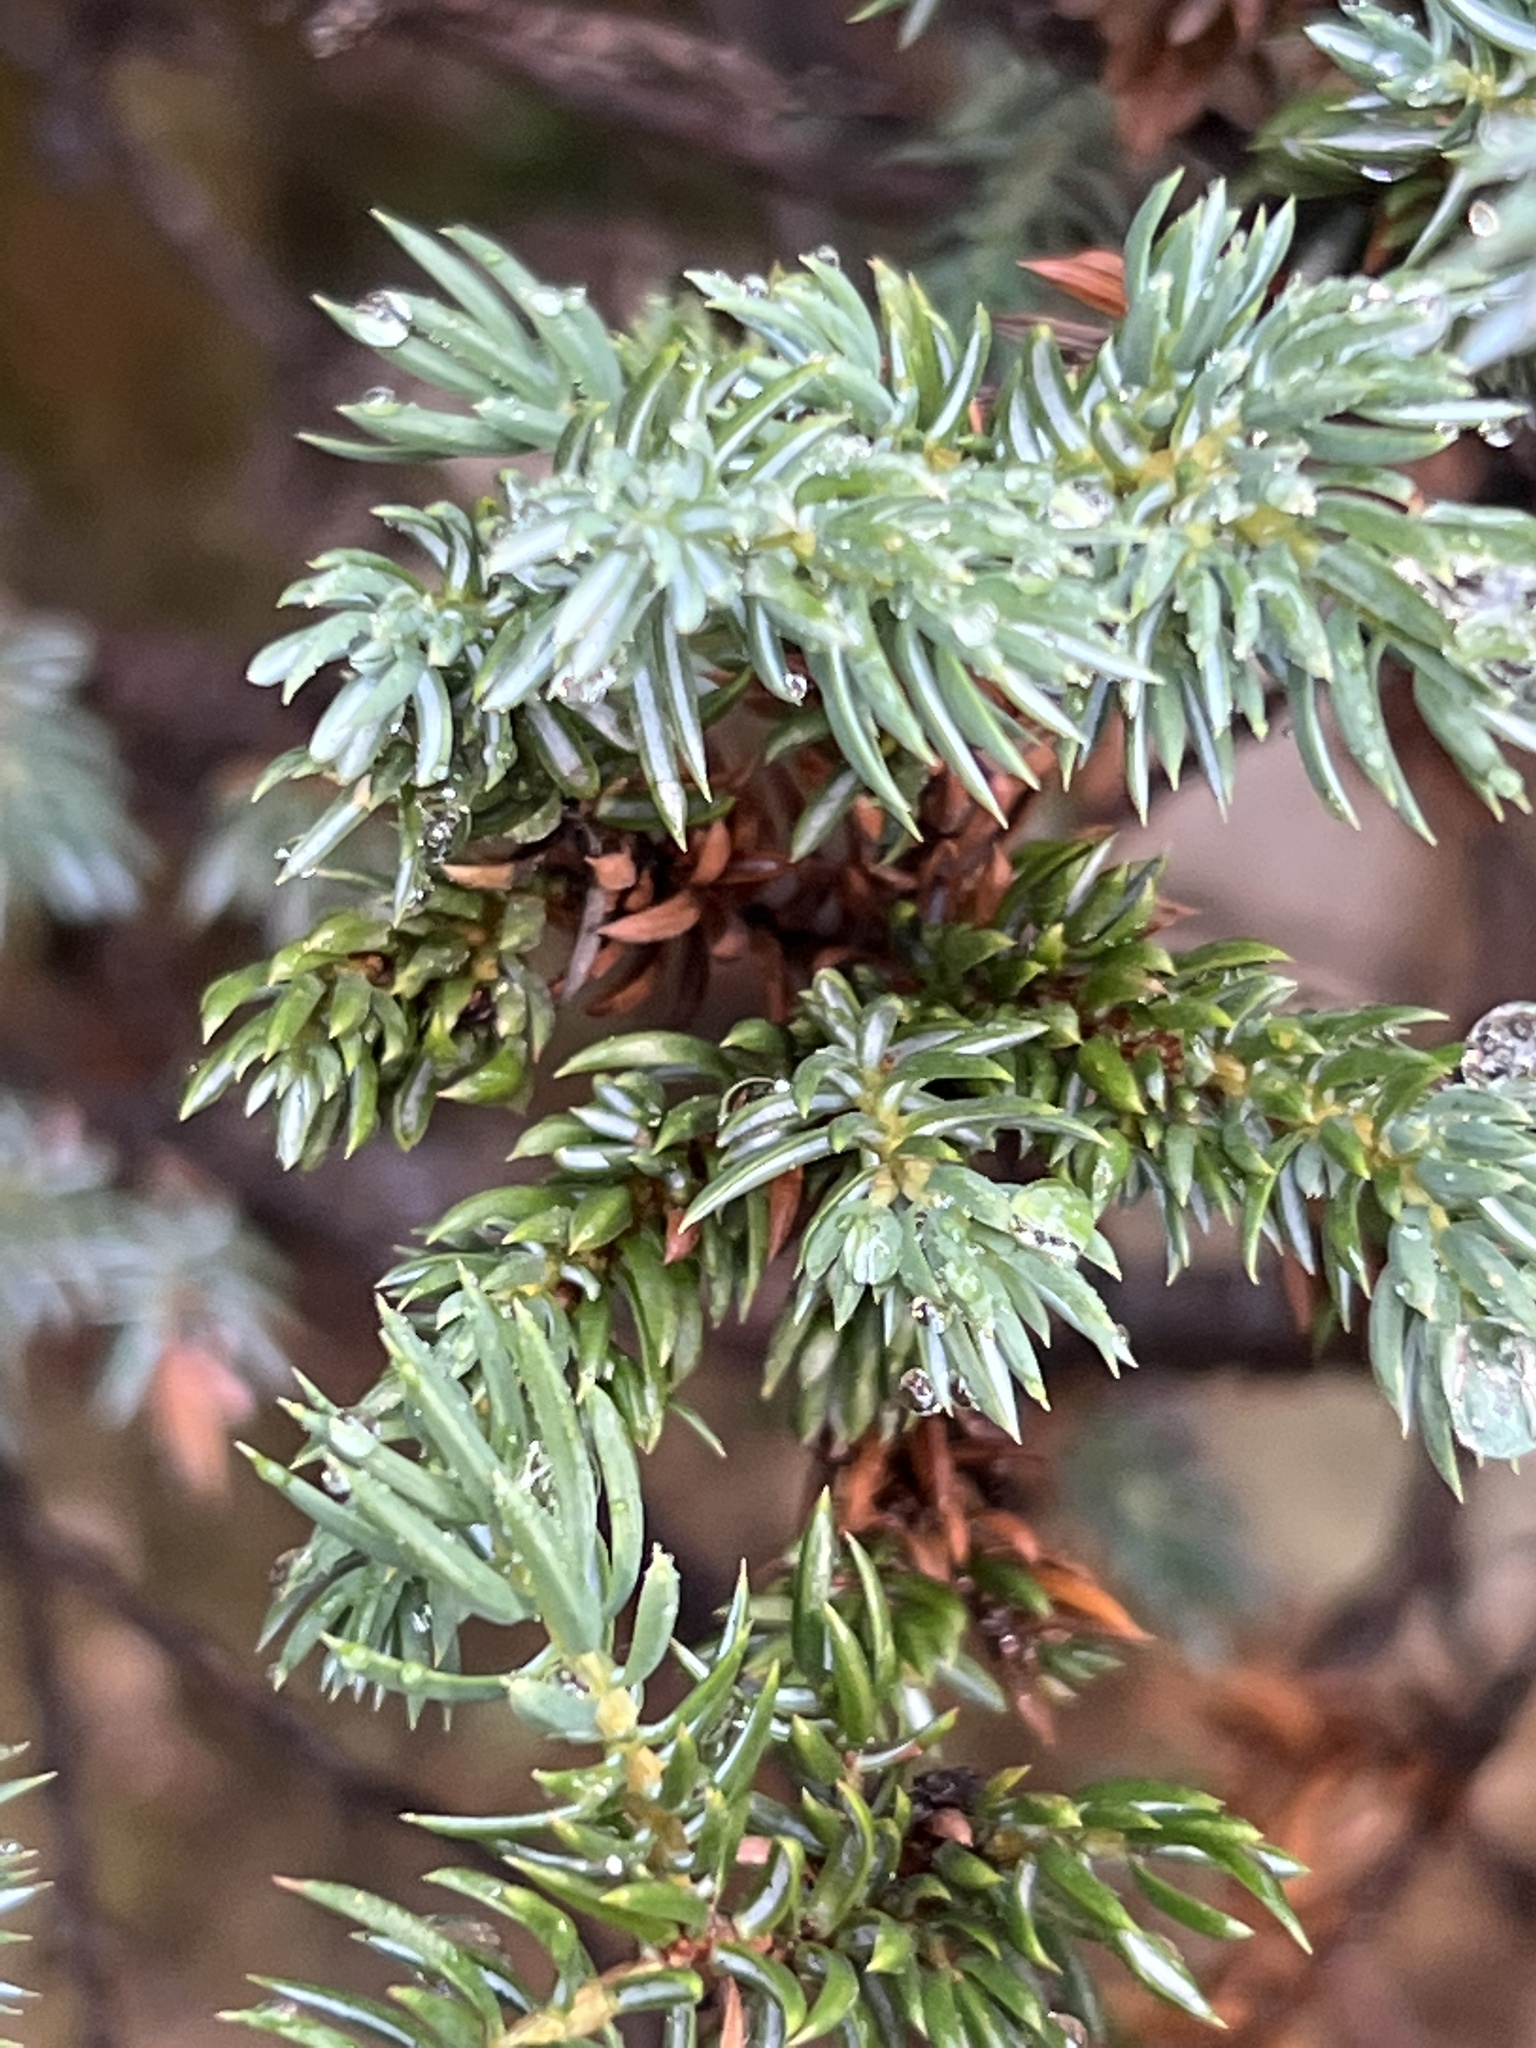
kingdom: Plantae
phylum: Tracheophyta
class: Pinopsida
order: Pinales
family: Cupressaceae
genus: Juniperus
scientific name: Juniperus communis
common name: Common juniper
